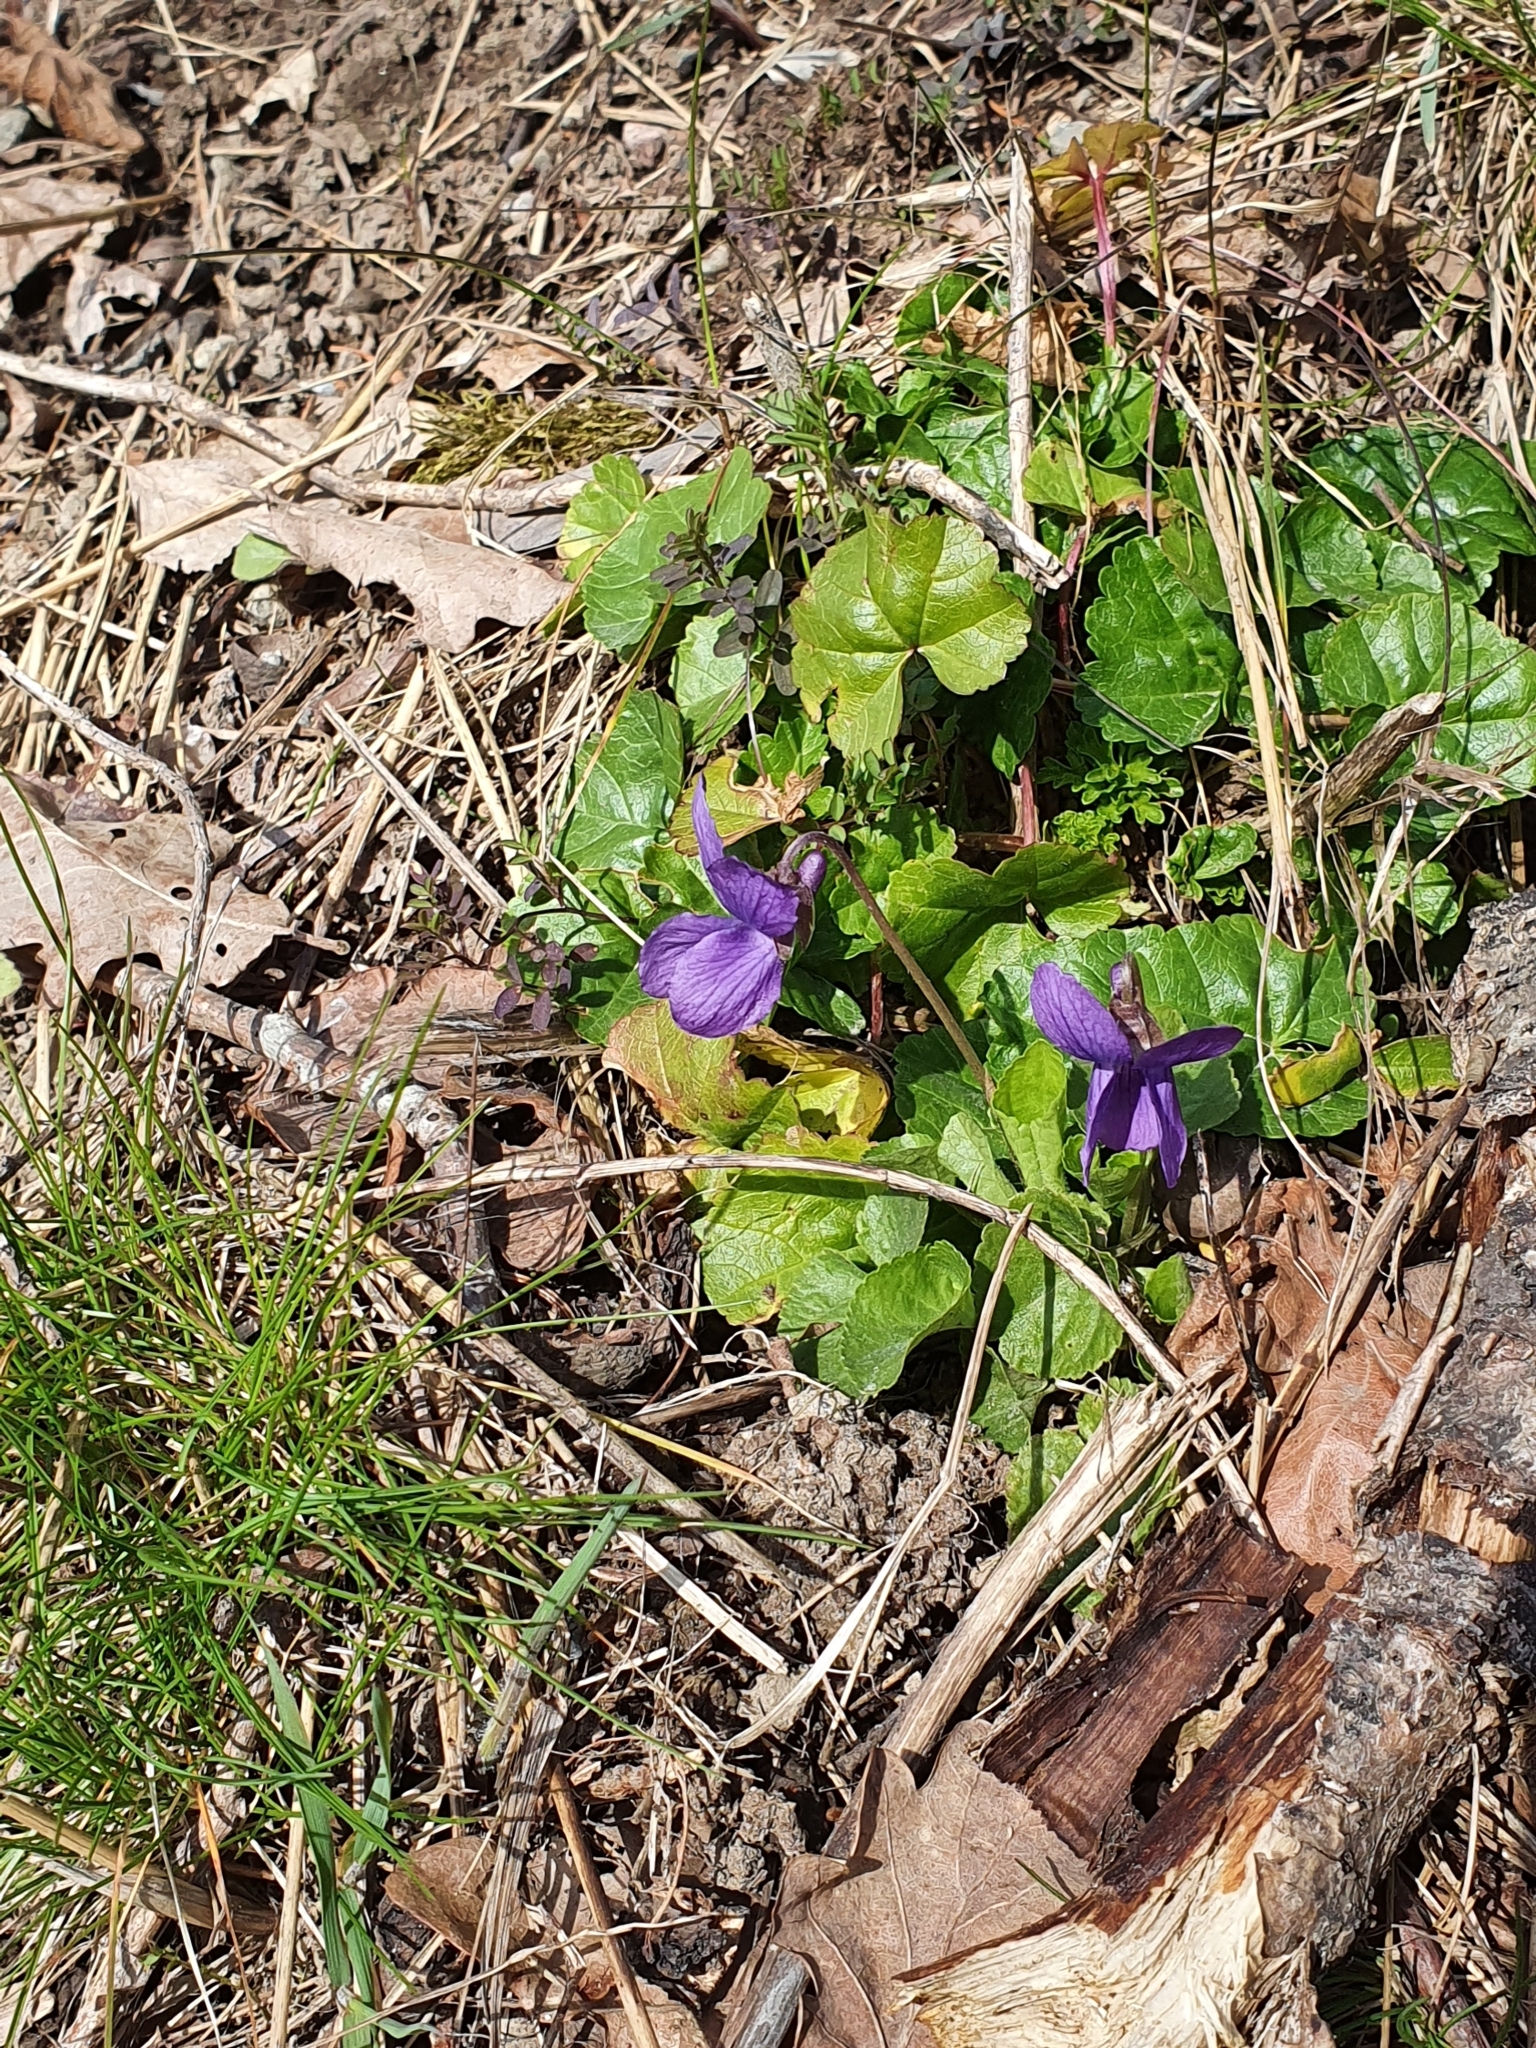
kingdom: Plantae
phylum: Tracheophyta
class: Magnoliopsida
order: Malpighiales
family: Violaceae
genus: Viola
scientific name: Viola odorata
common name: Sweet violet
